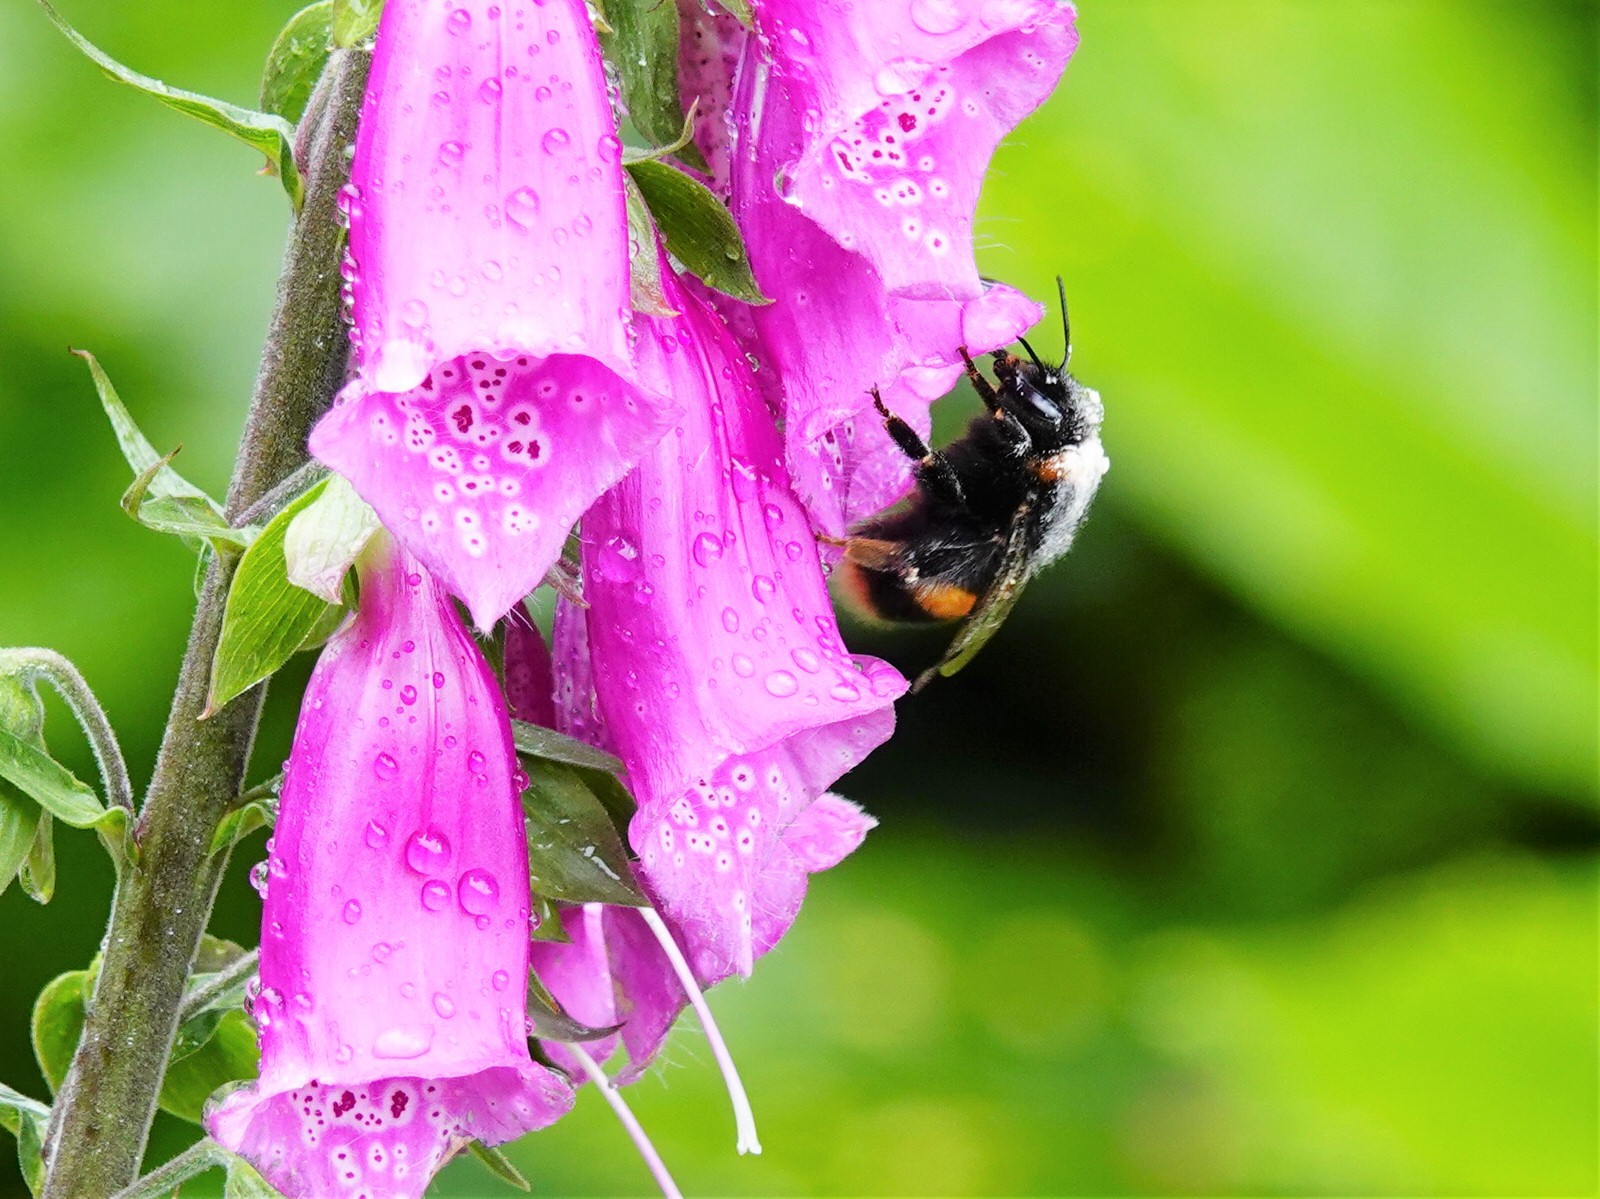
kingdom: Animalia
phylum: Arthropoda
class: Insecta
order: Hymenoptera
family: Apidae
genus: Bombus
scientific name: Bombus terrestris
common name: Buff-tailed bumblebee
